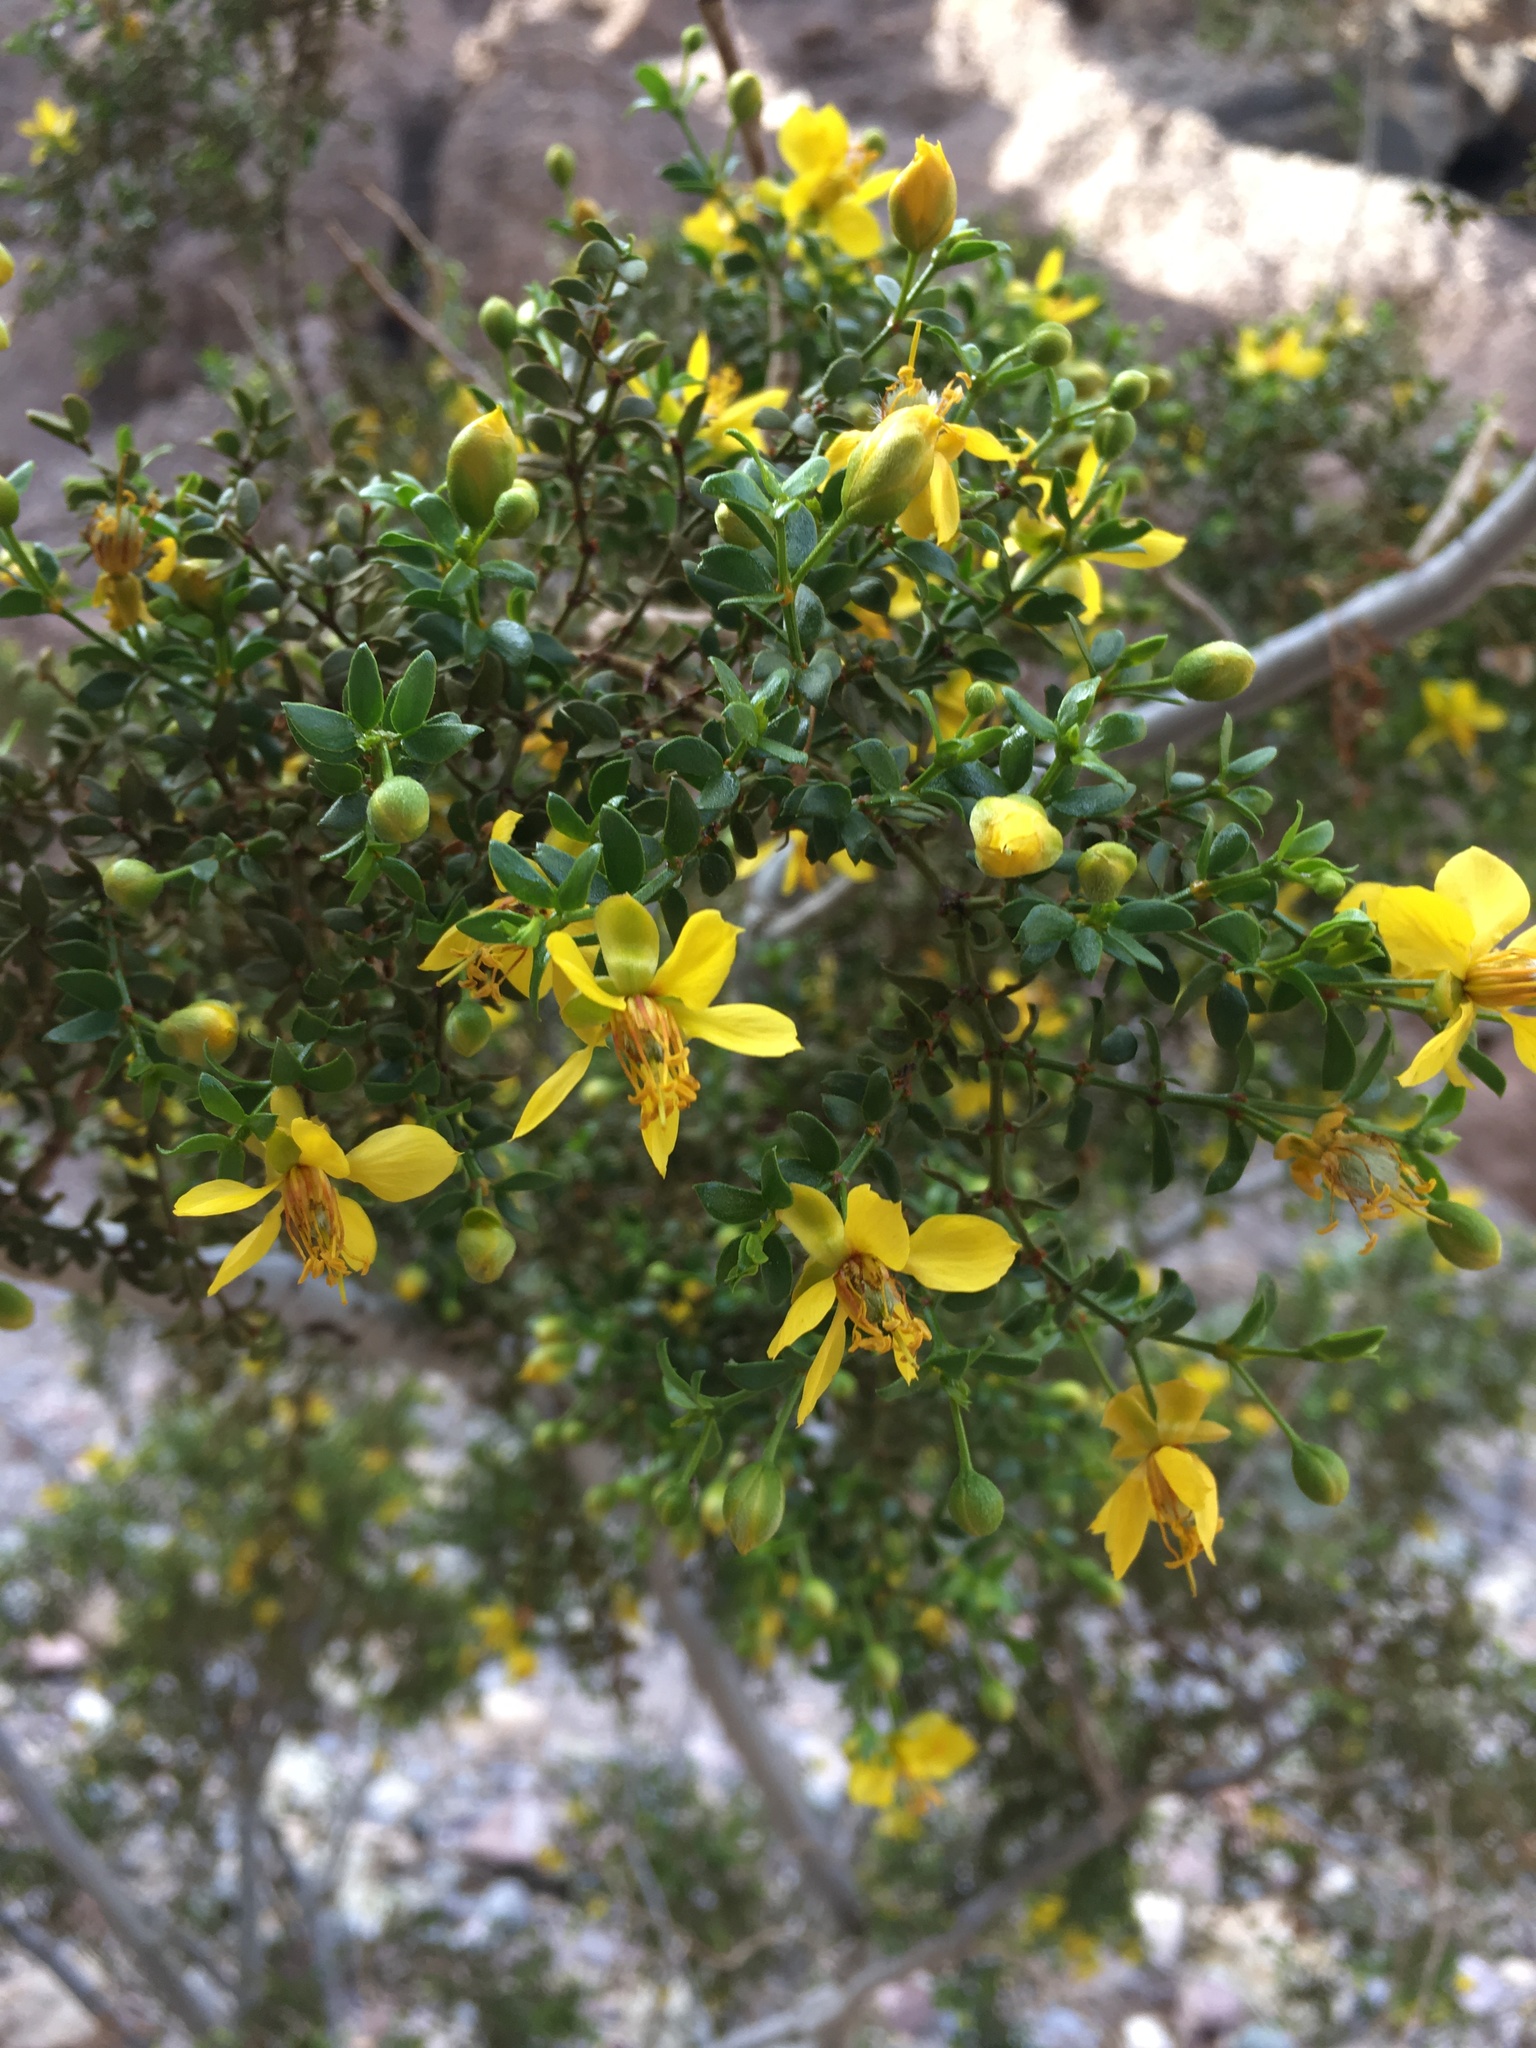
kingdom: Plantae
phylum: Tracheophyta
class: Magnoliopsida
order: Zygophyllales
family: Zygophyllaceae
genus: Larrea
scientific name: Larrea tridentata
